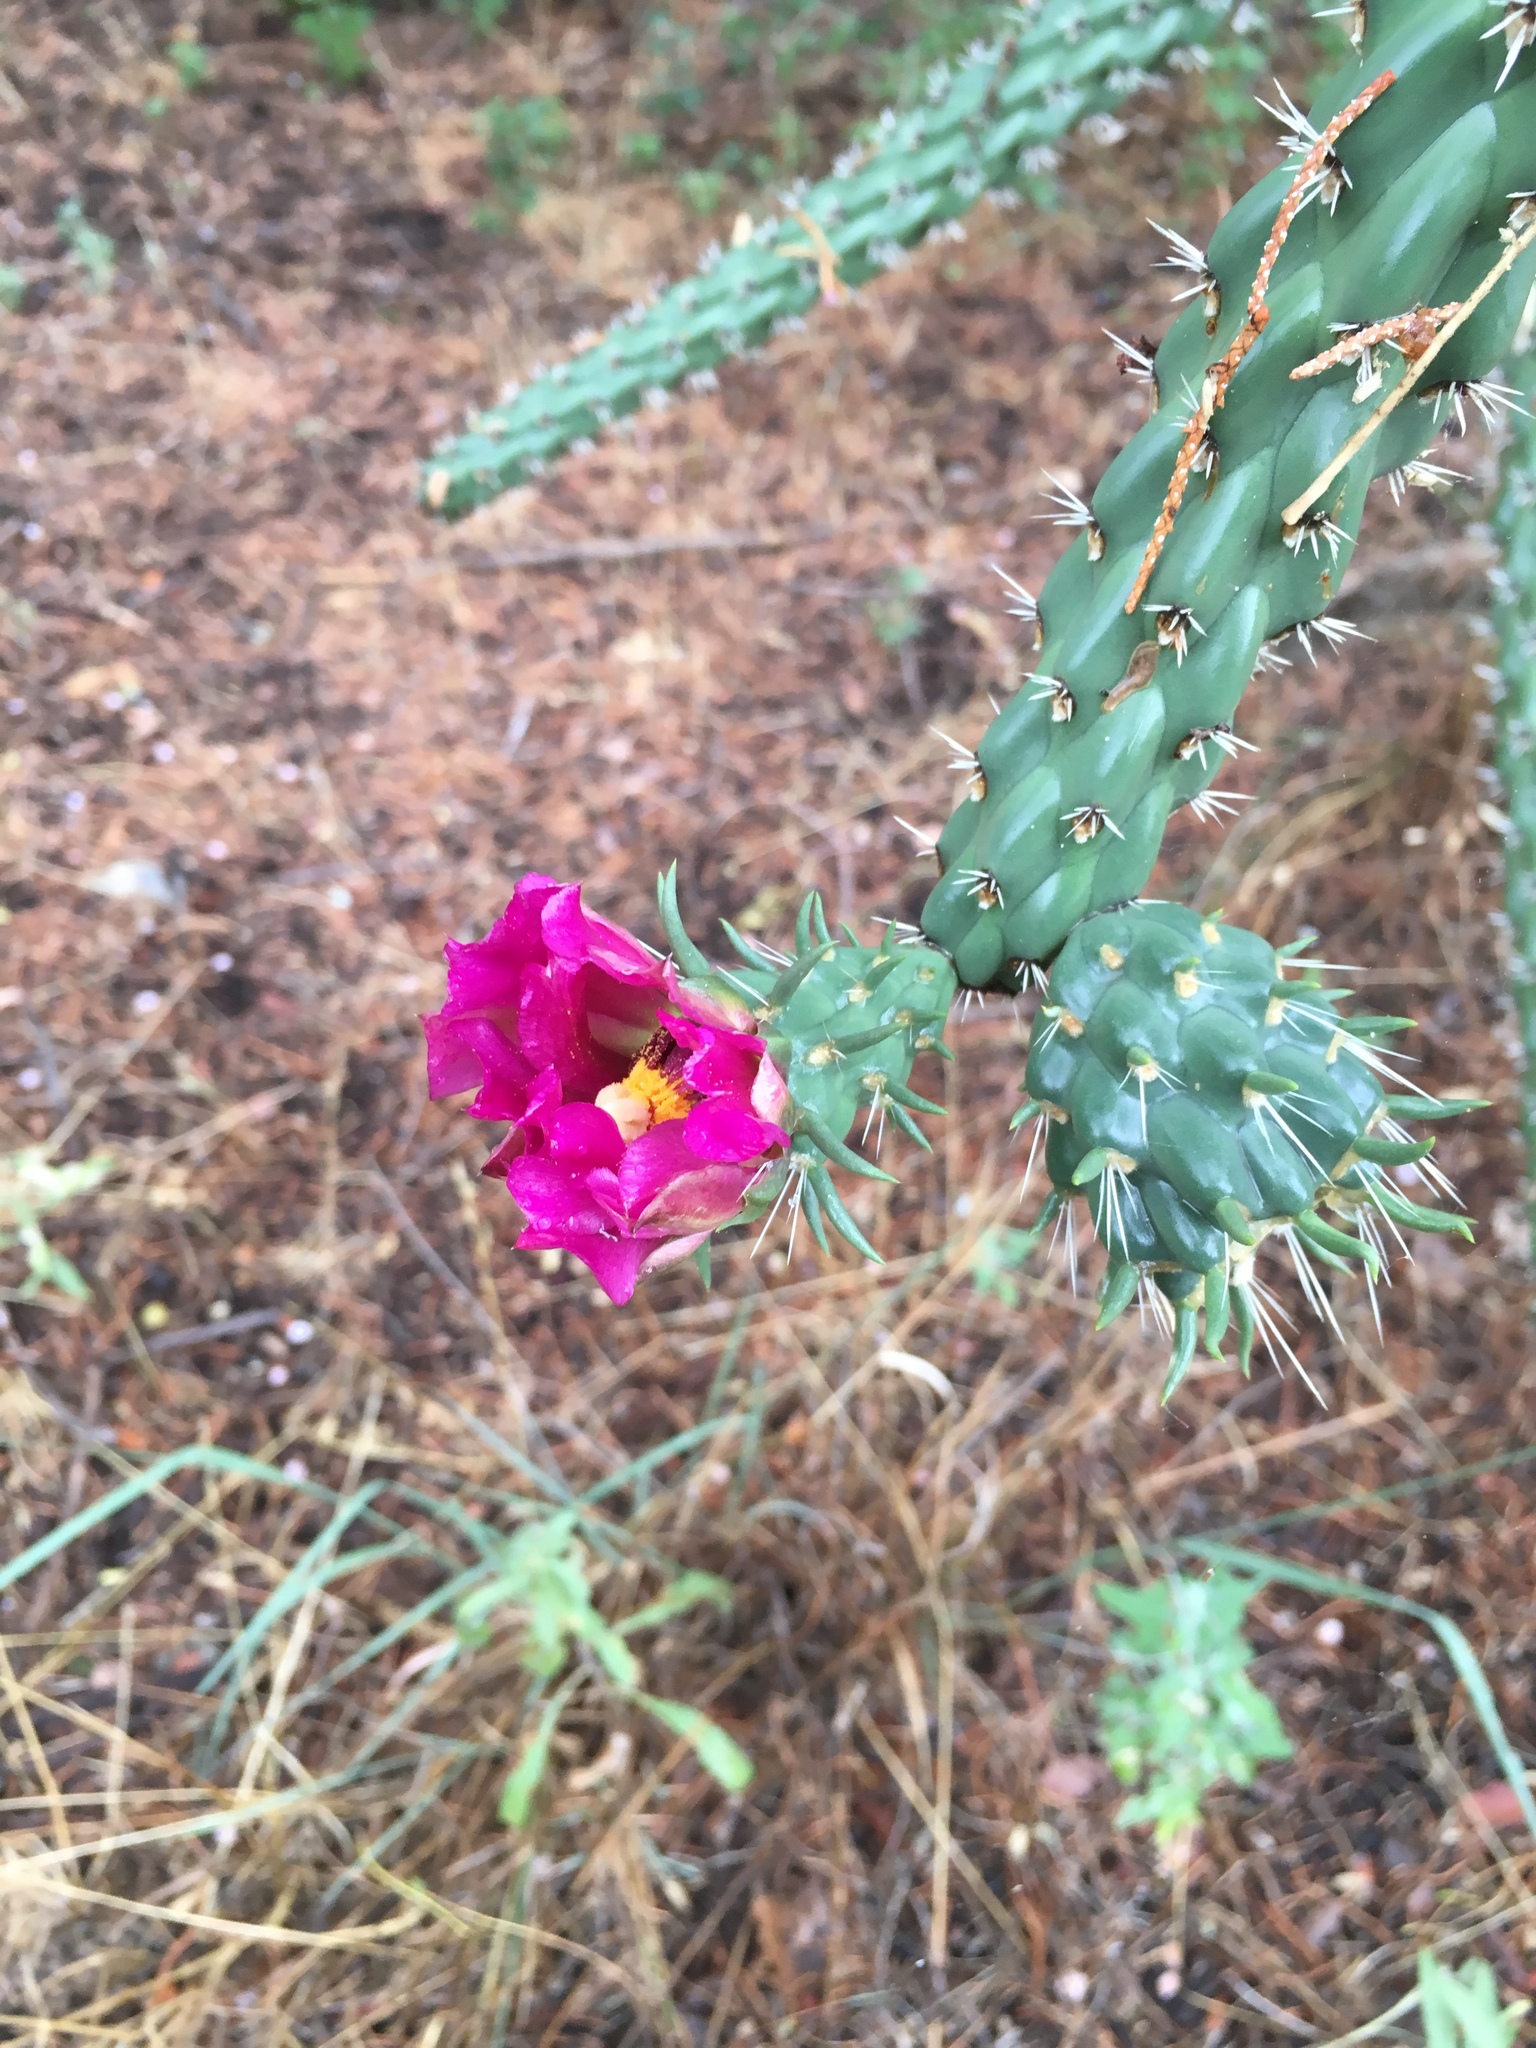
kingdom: Plantae
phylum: Tracheophyta
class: Magnoliopsida
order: Caryophyllales
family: Cactaceae
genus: Cylindropuntia
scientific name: Cylindropuntia imbricata
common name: Candelabrum cactus
